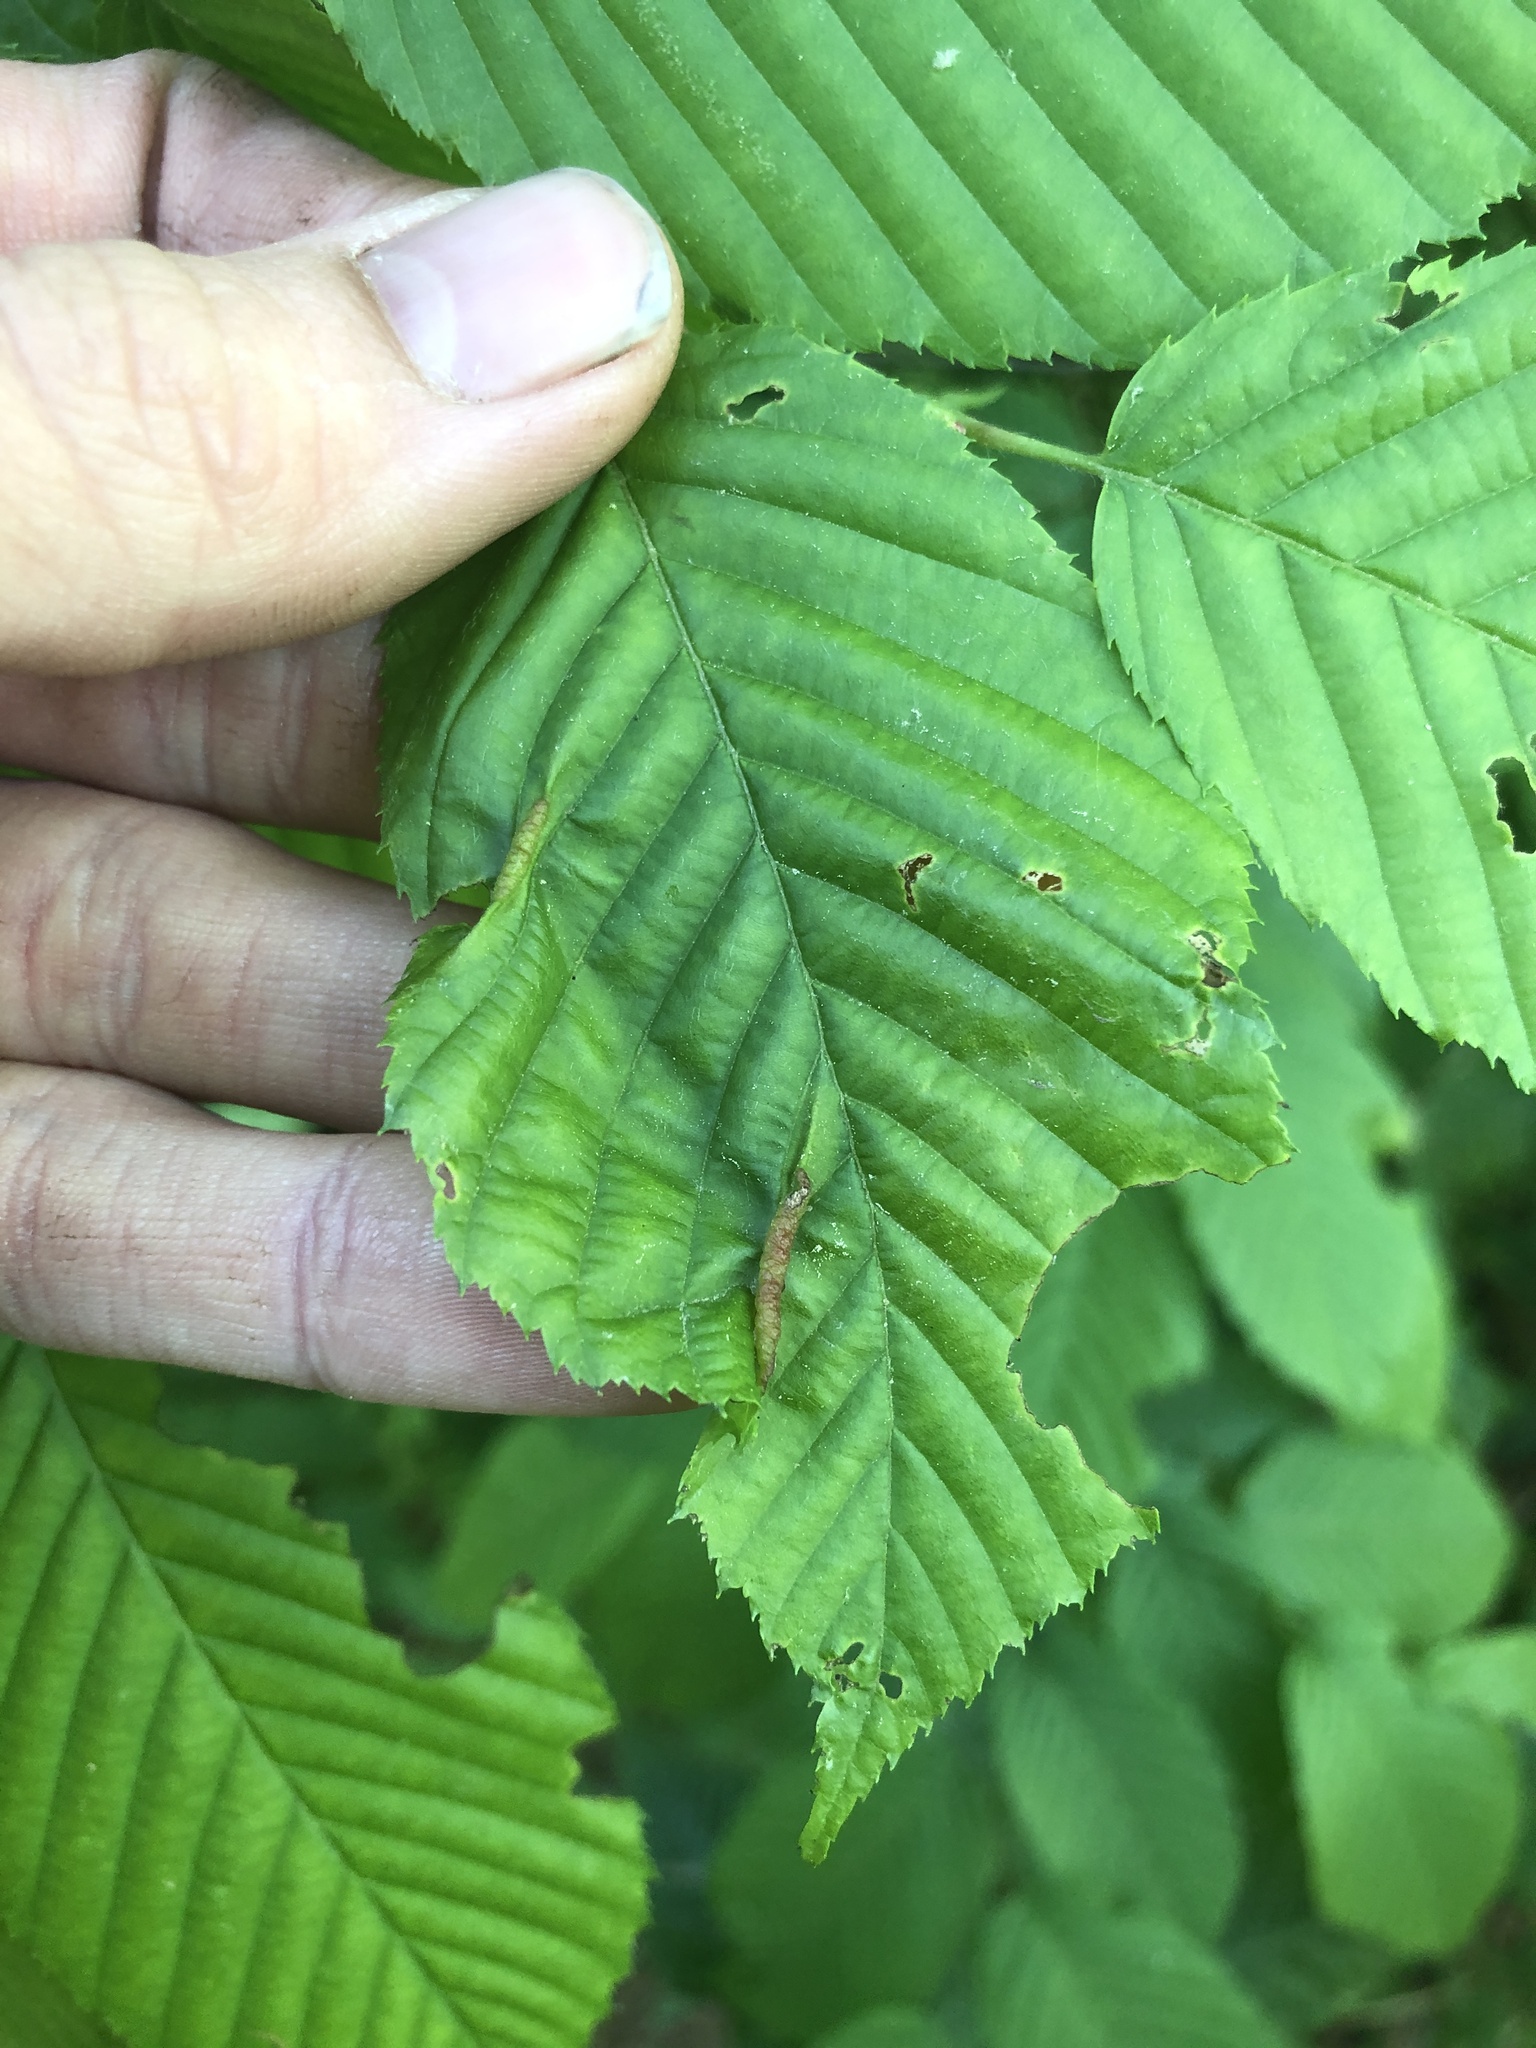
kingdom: Animalia
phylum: Arthropoda
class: Insecta
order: Diptera
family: Cecidomyiidae
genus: Dasineura
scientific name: Dasineura pudibunda
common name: Hornbeam leaf gall midge
